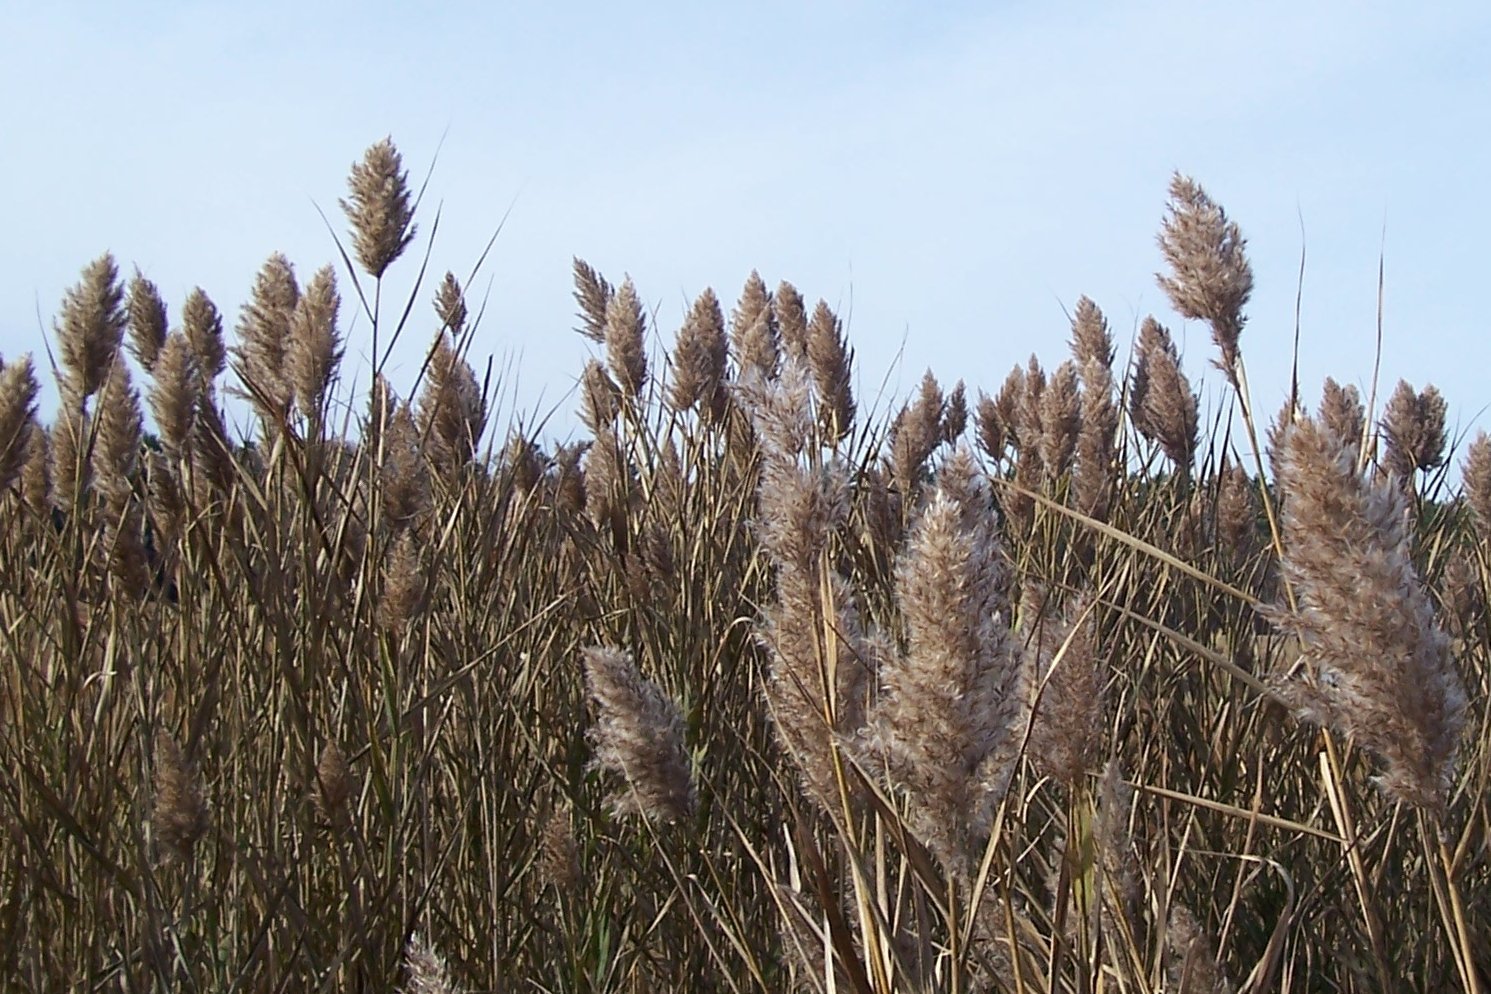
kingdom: Plantae
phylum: Tracheophyta
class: Liliopsida
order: Poales
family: Poaceae
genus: Phragmites
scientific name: Phragmites australis
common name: Common reed
